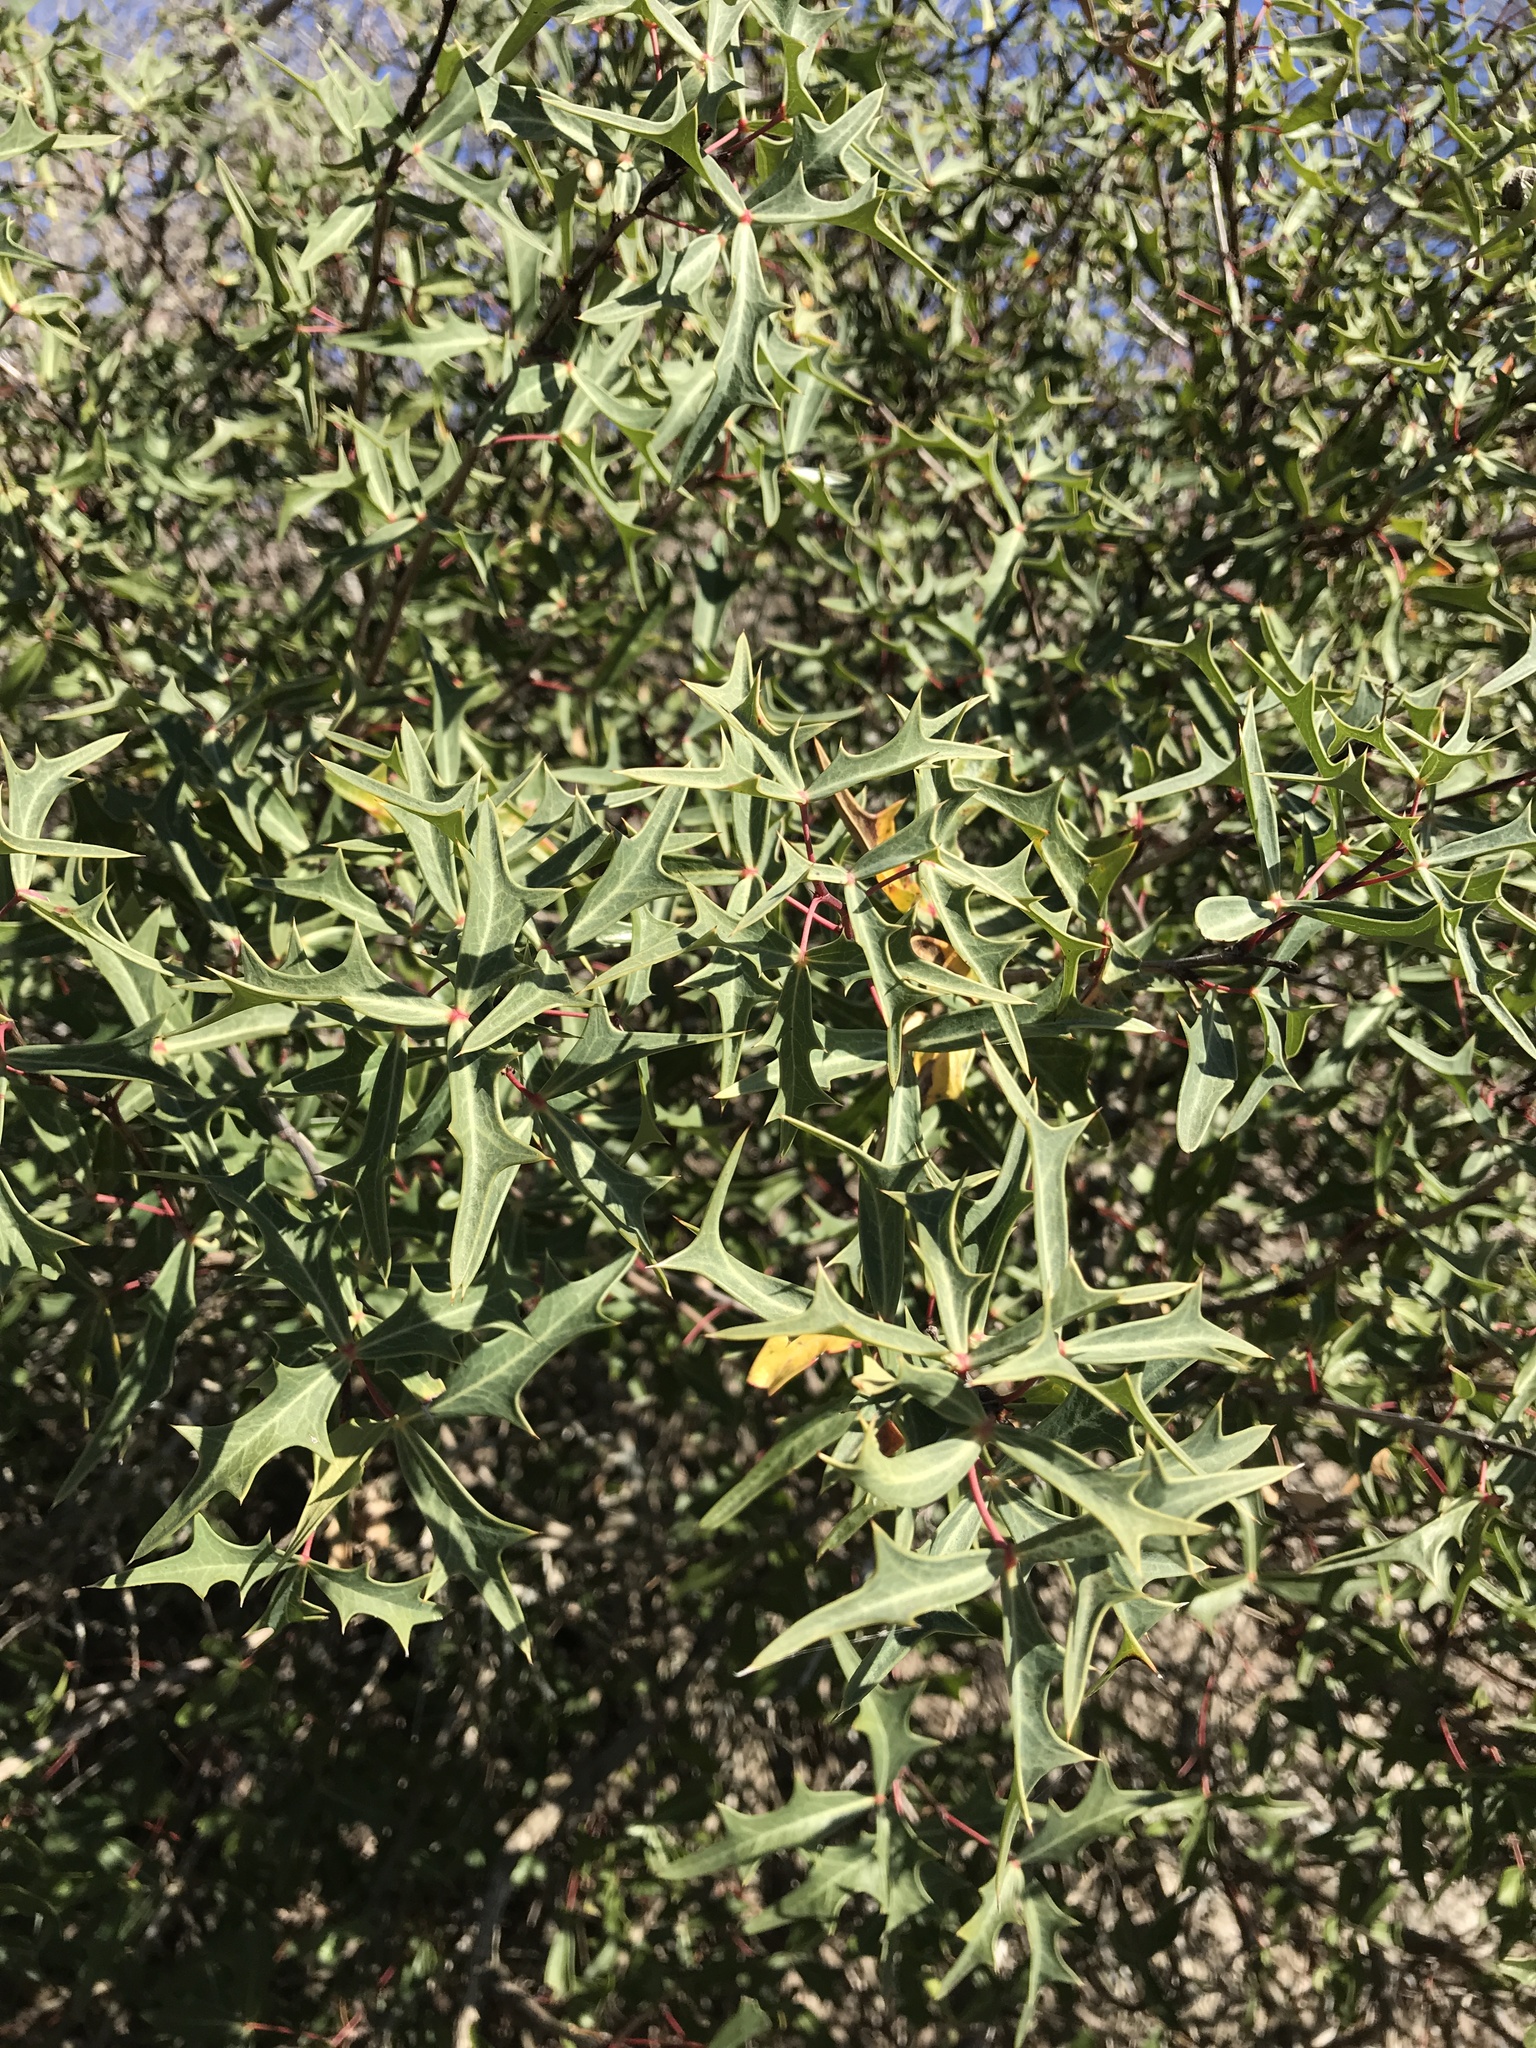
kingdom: Plantae
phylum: Tracheophyta
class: Magnoliopsida
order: Ranunculales
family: Berberidaceae
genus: Alloberberis
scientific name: Alloberberis trifoliolata
